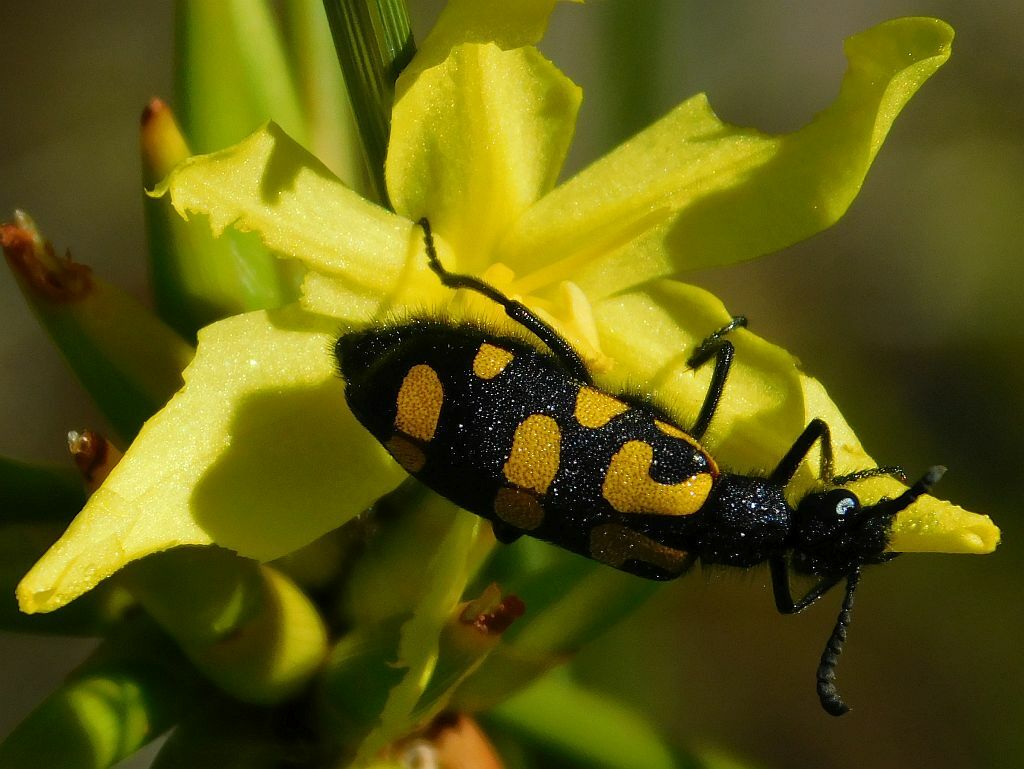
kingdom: Animalia
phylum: Arthropoda
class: Insecta
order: Coleoptera
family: Meloidae
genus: Ceroctis
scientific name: Ceroctis capensis
